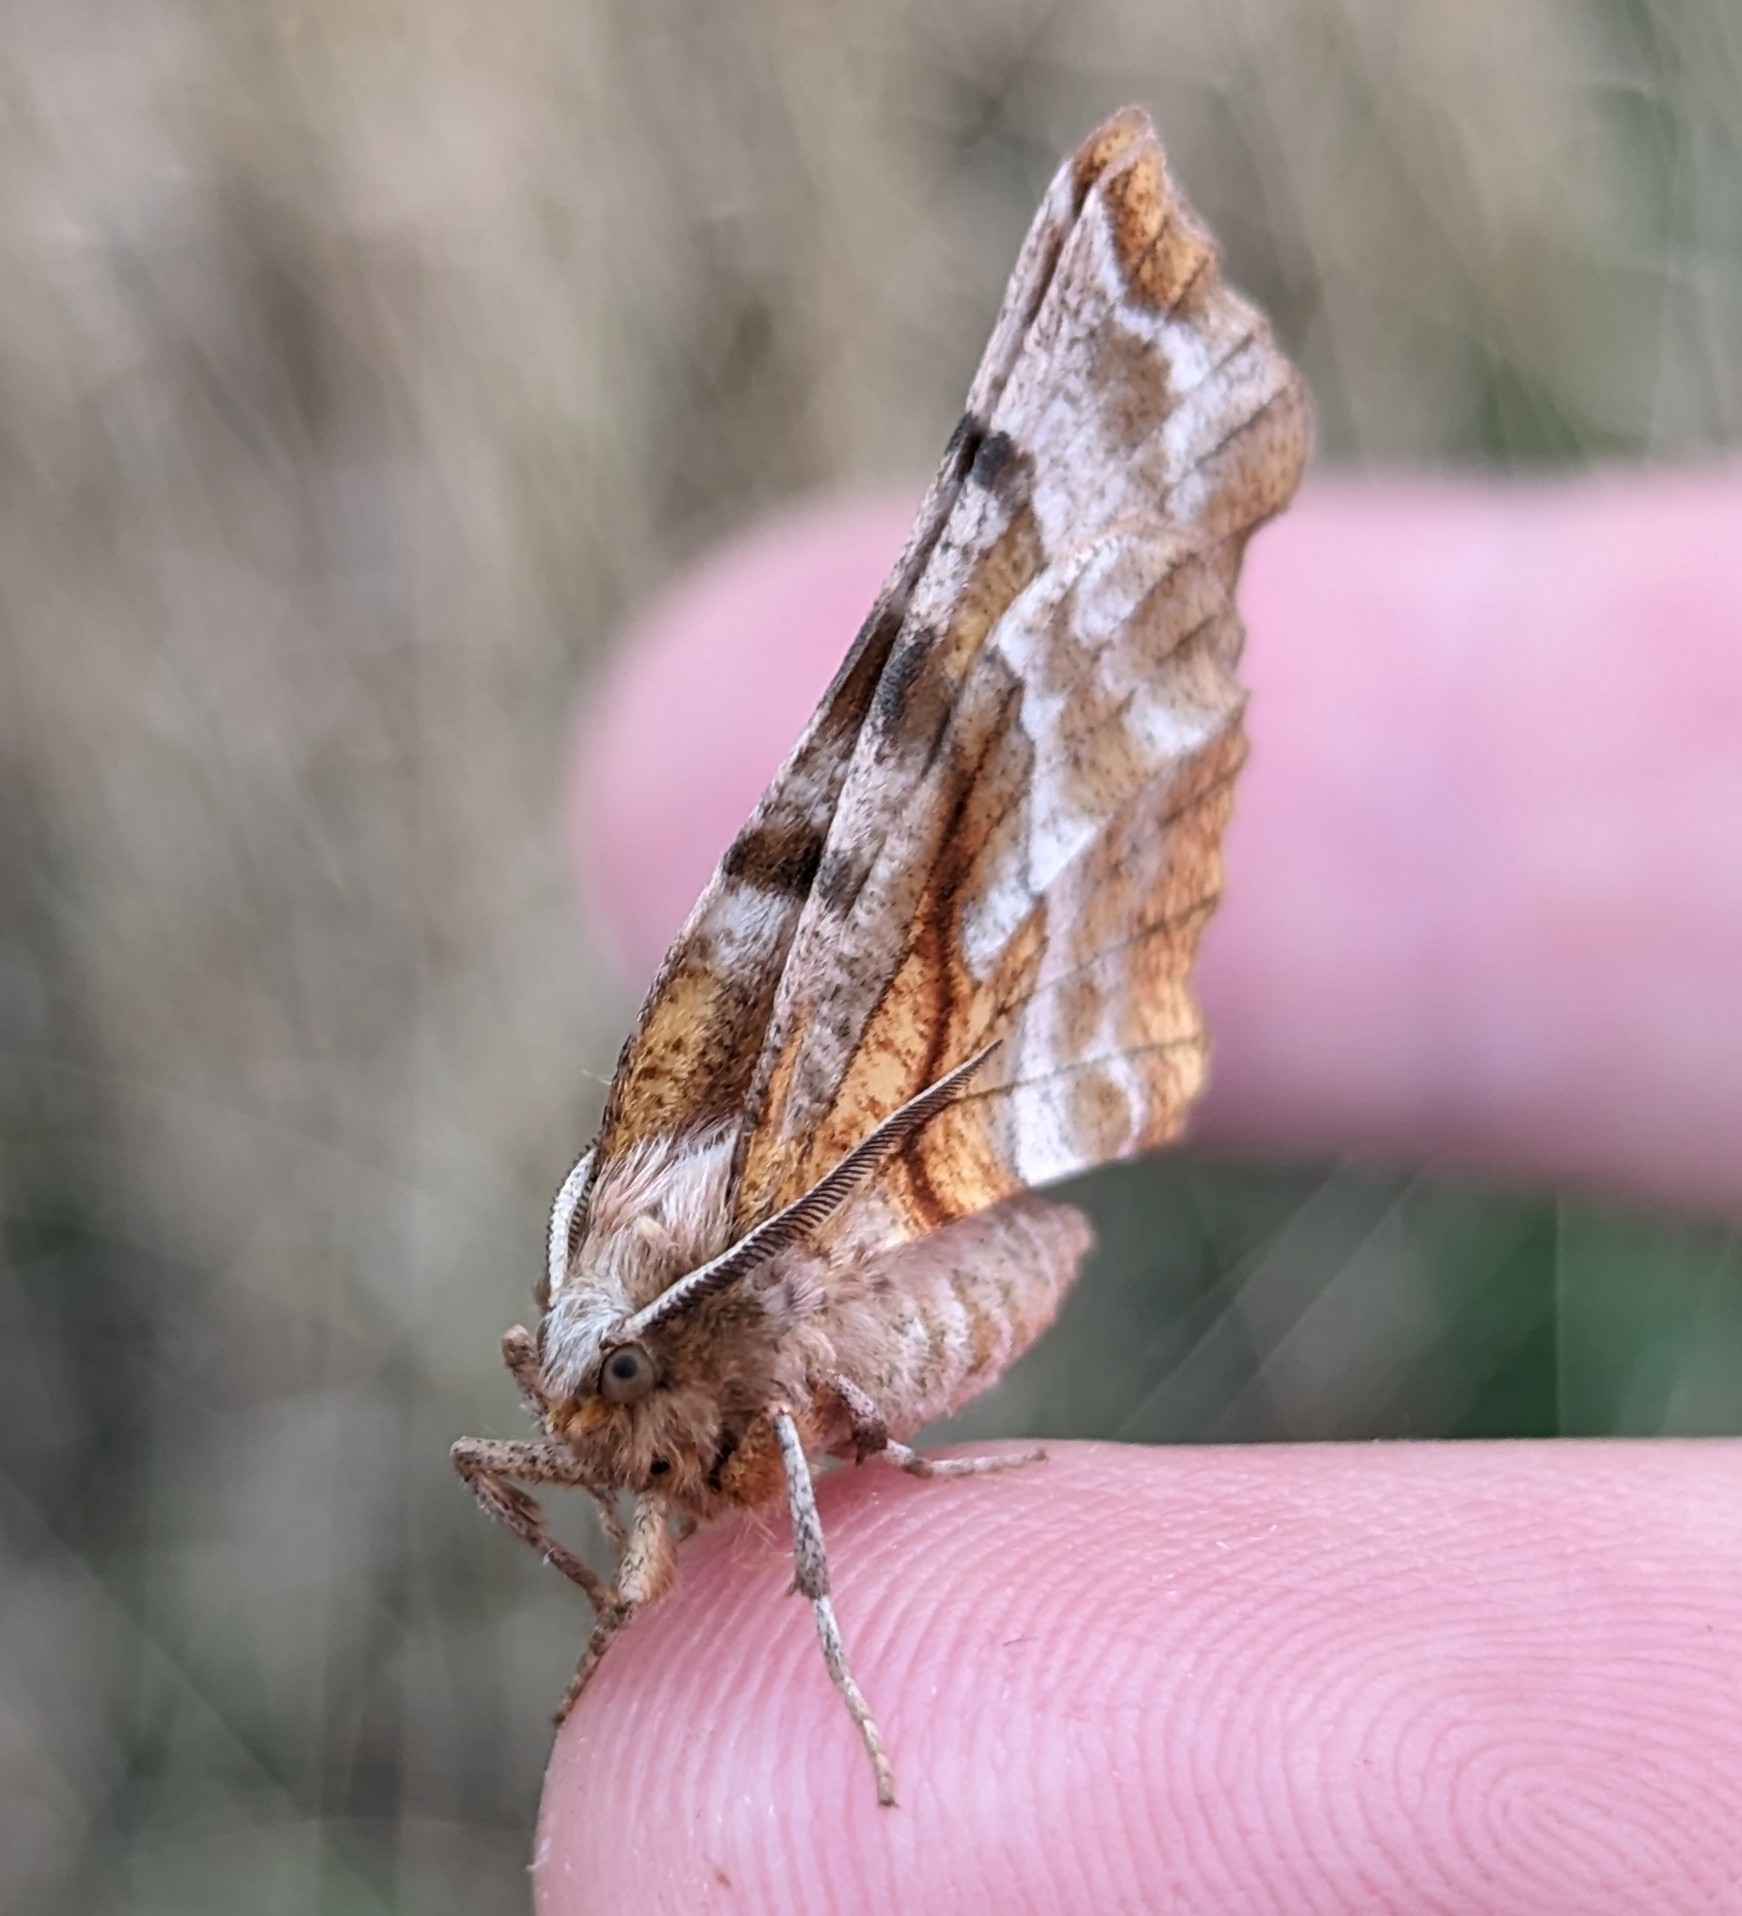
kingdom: Animalia
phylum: Arthropoda
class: Insecta
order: Lepidoptera
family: Geometridae
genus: Selenia
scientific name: Selenia kentaria
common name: Kent's geometer
